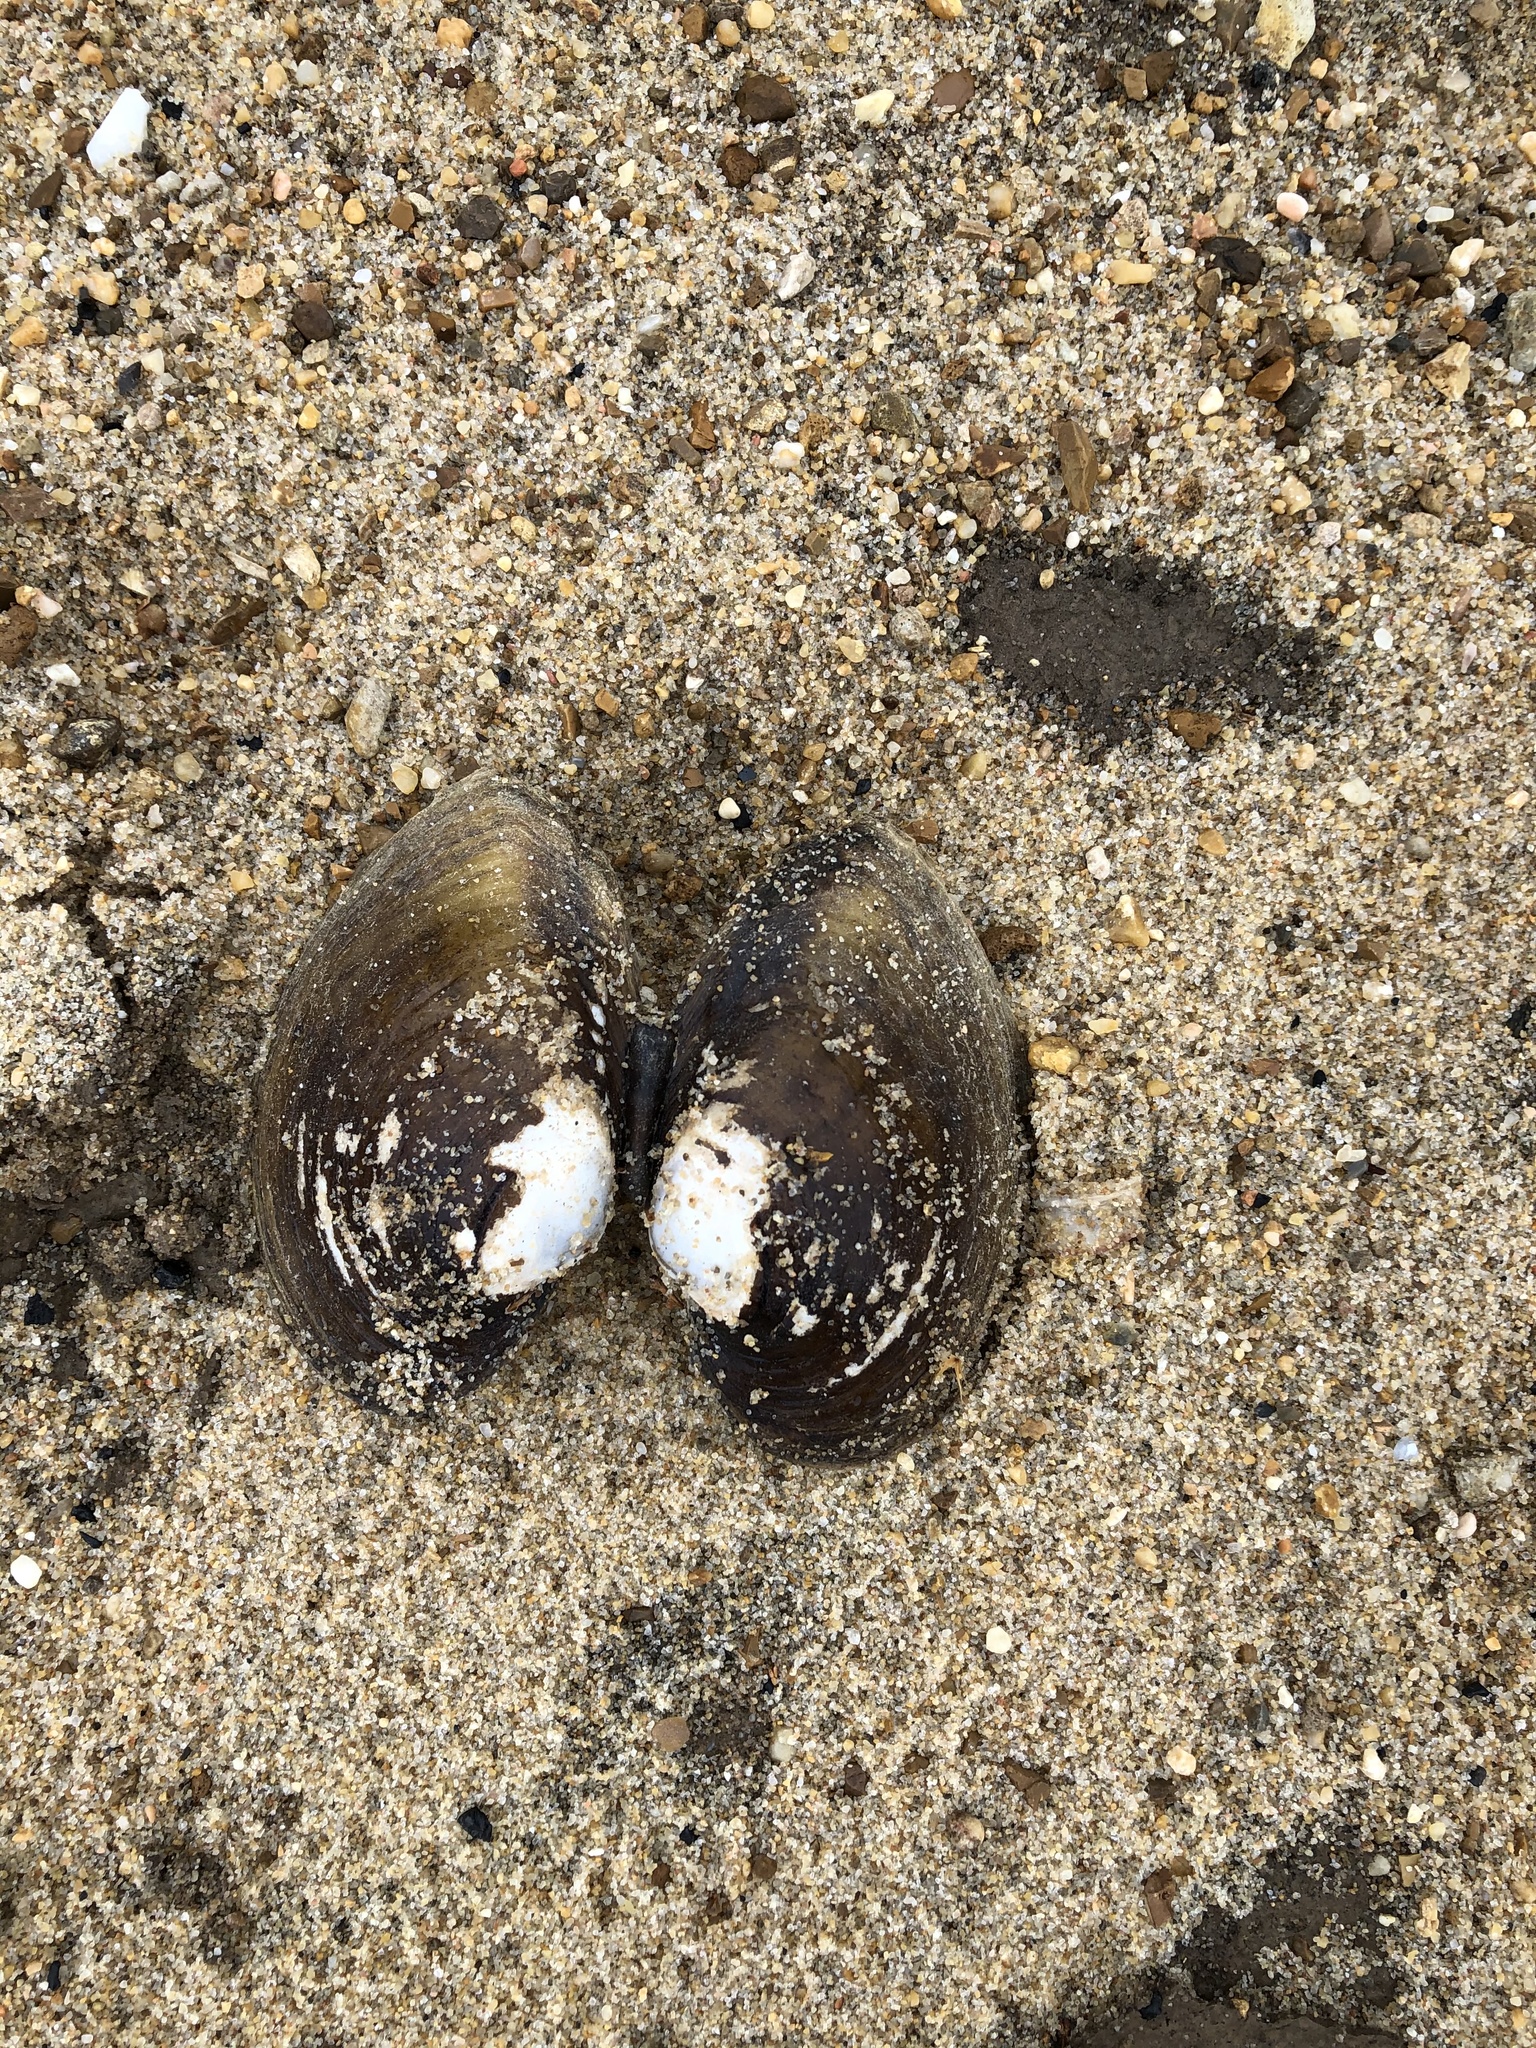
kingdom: Animalia
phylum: Mollusca
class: Bivalvia
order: Unionida
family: Unionidae
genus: Lampsilis
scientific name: Lampsilis ornata
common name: Southern pocketbook
